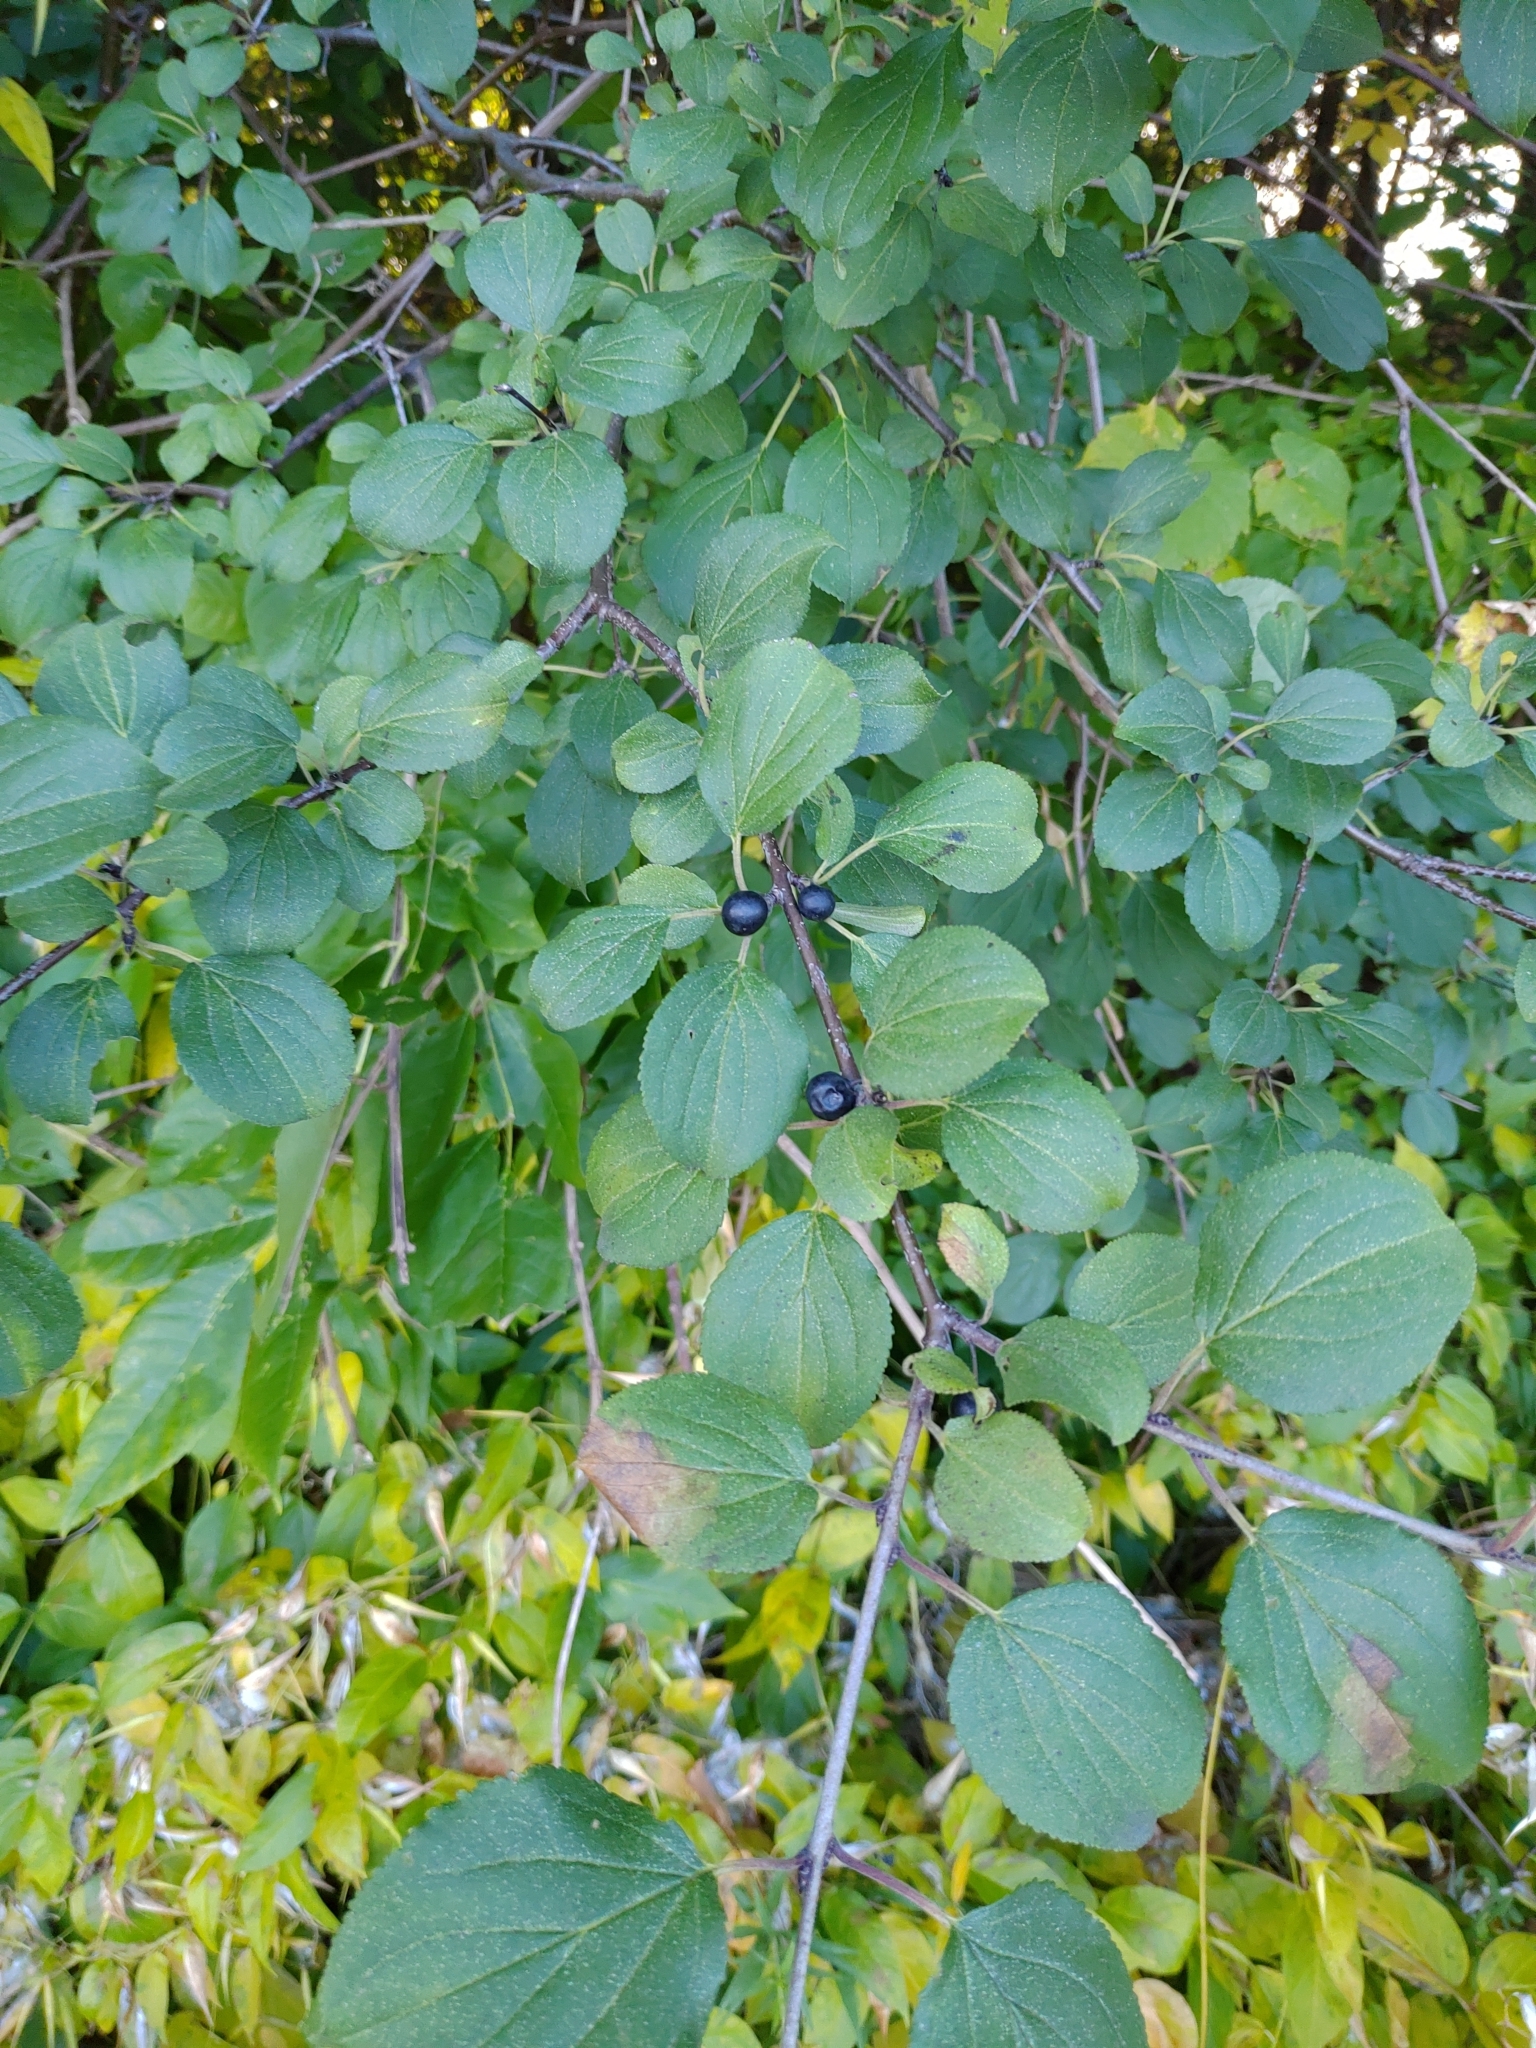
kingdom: Plantae
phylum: Tracheophyta
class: Magnoliopsida
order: Rosales
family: Rhamnaceae
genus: Rhamnus
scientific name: Rhamnus cathartica
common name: Common buckthorn
